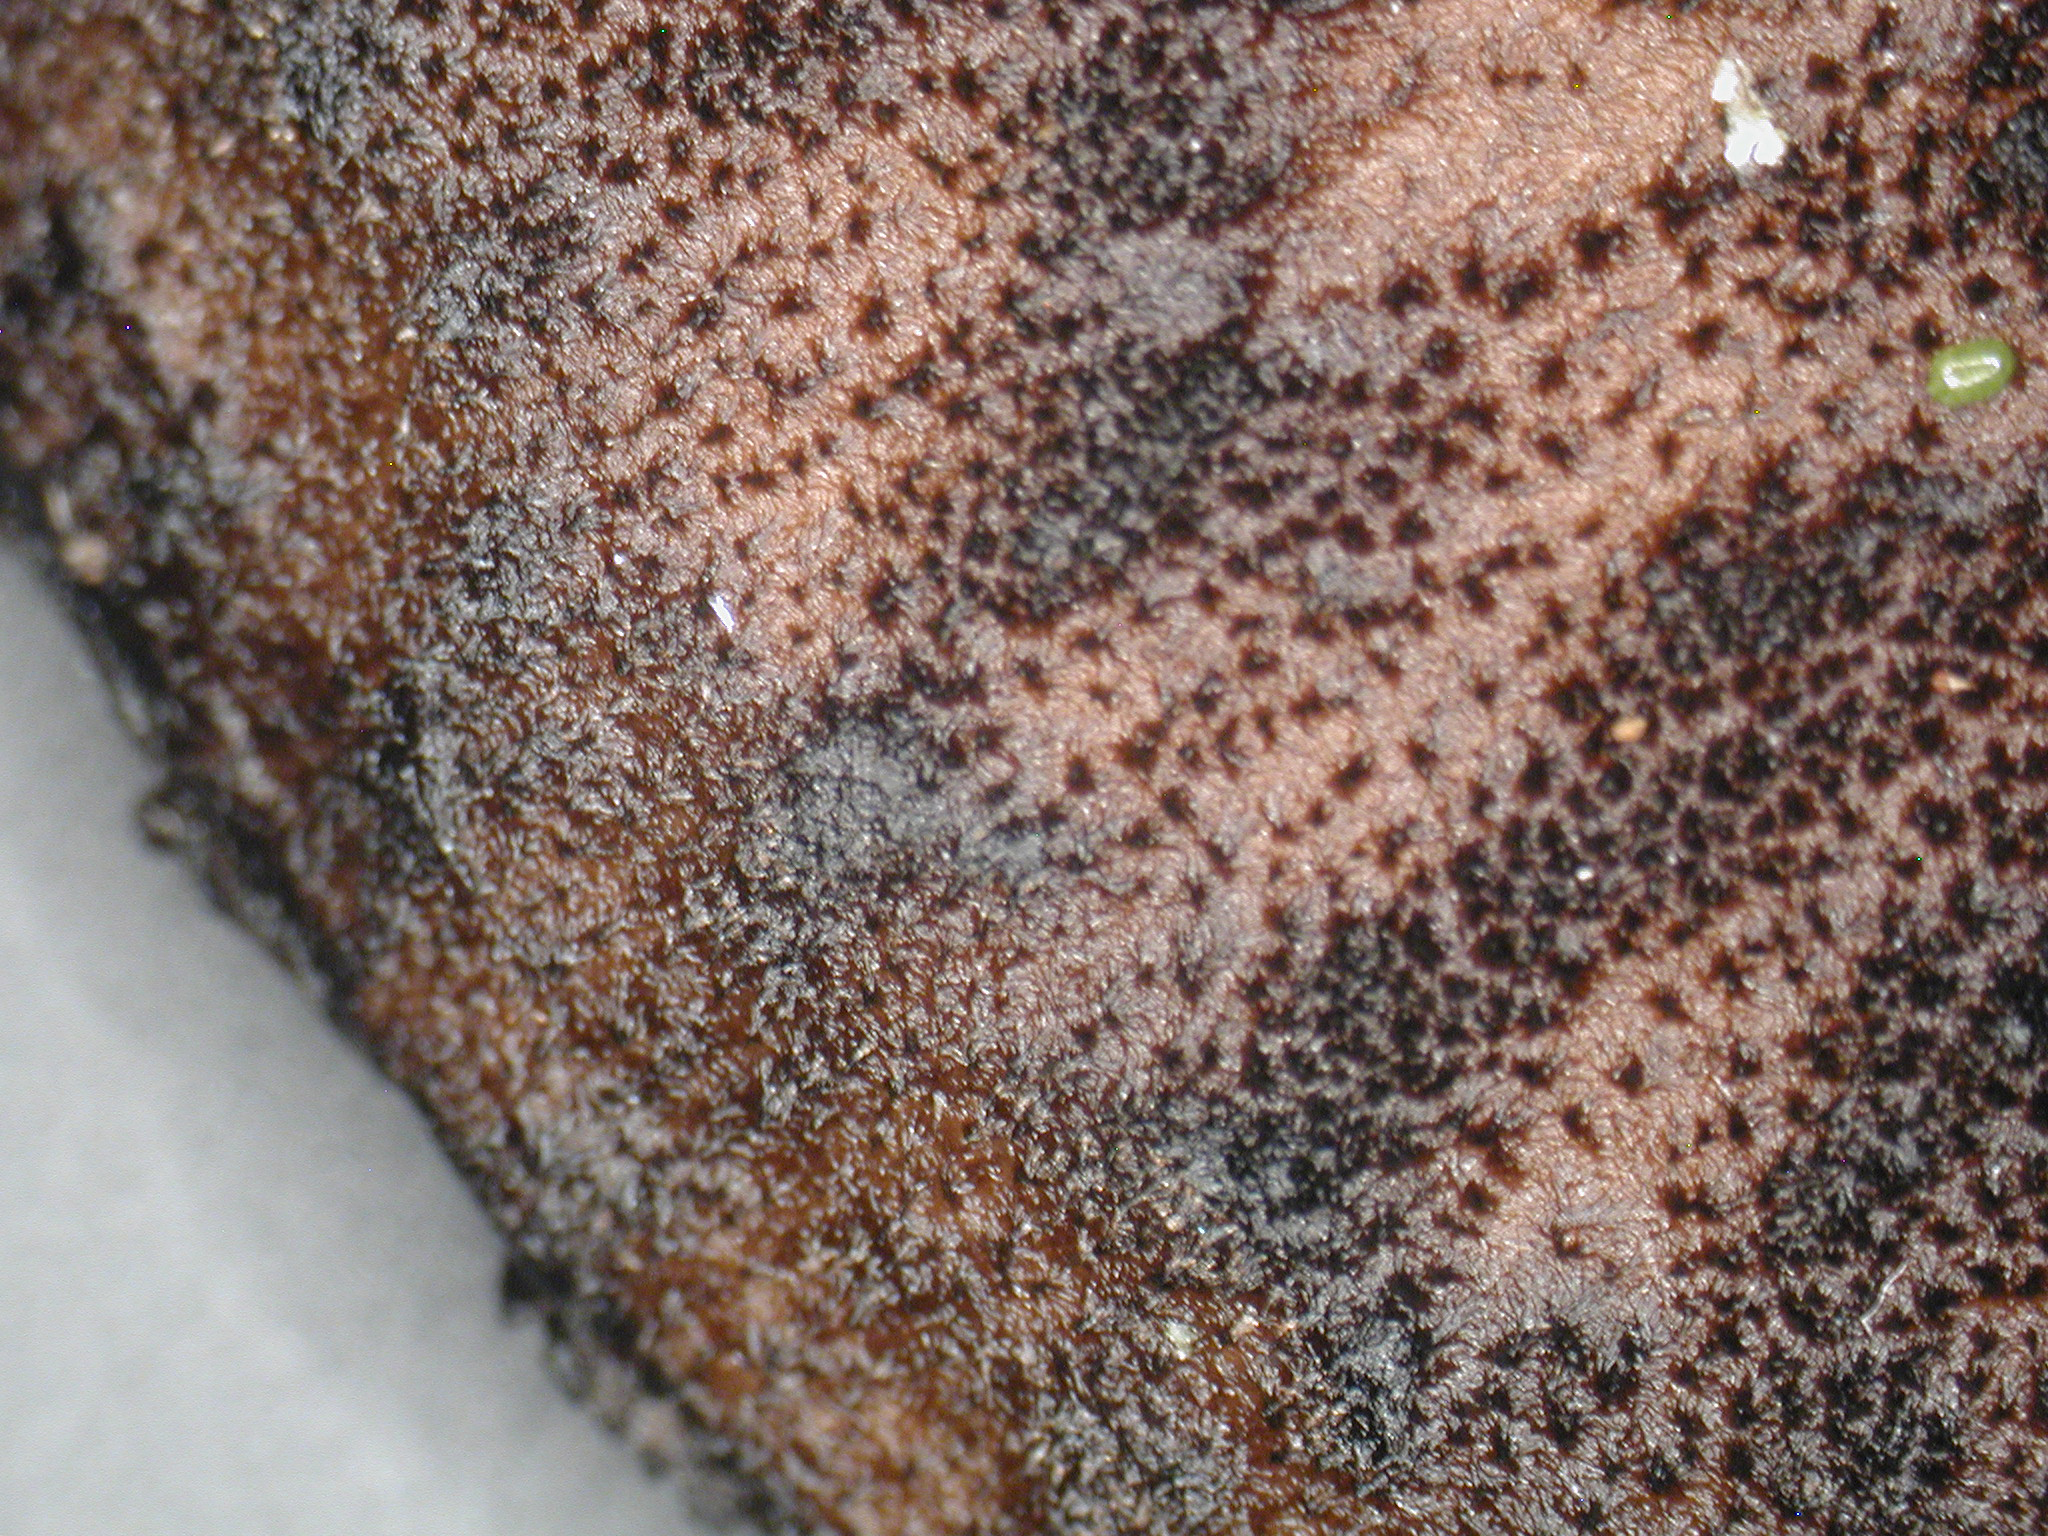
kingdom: Fungi
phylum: Basidiomycota
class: Agaricomycetes
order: Agaricales
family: Pluteaceae
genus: Pluteus
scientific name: Pluteus
